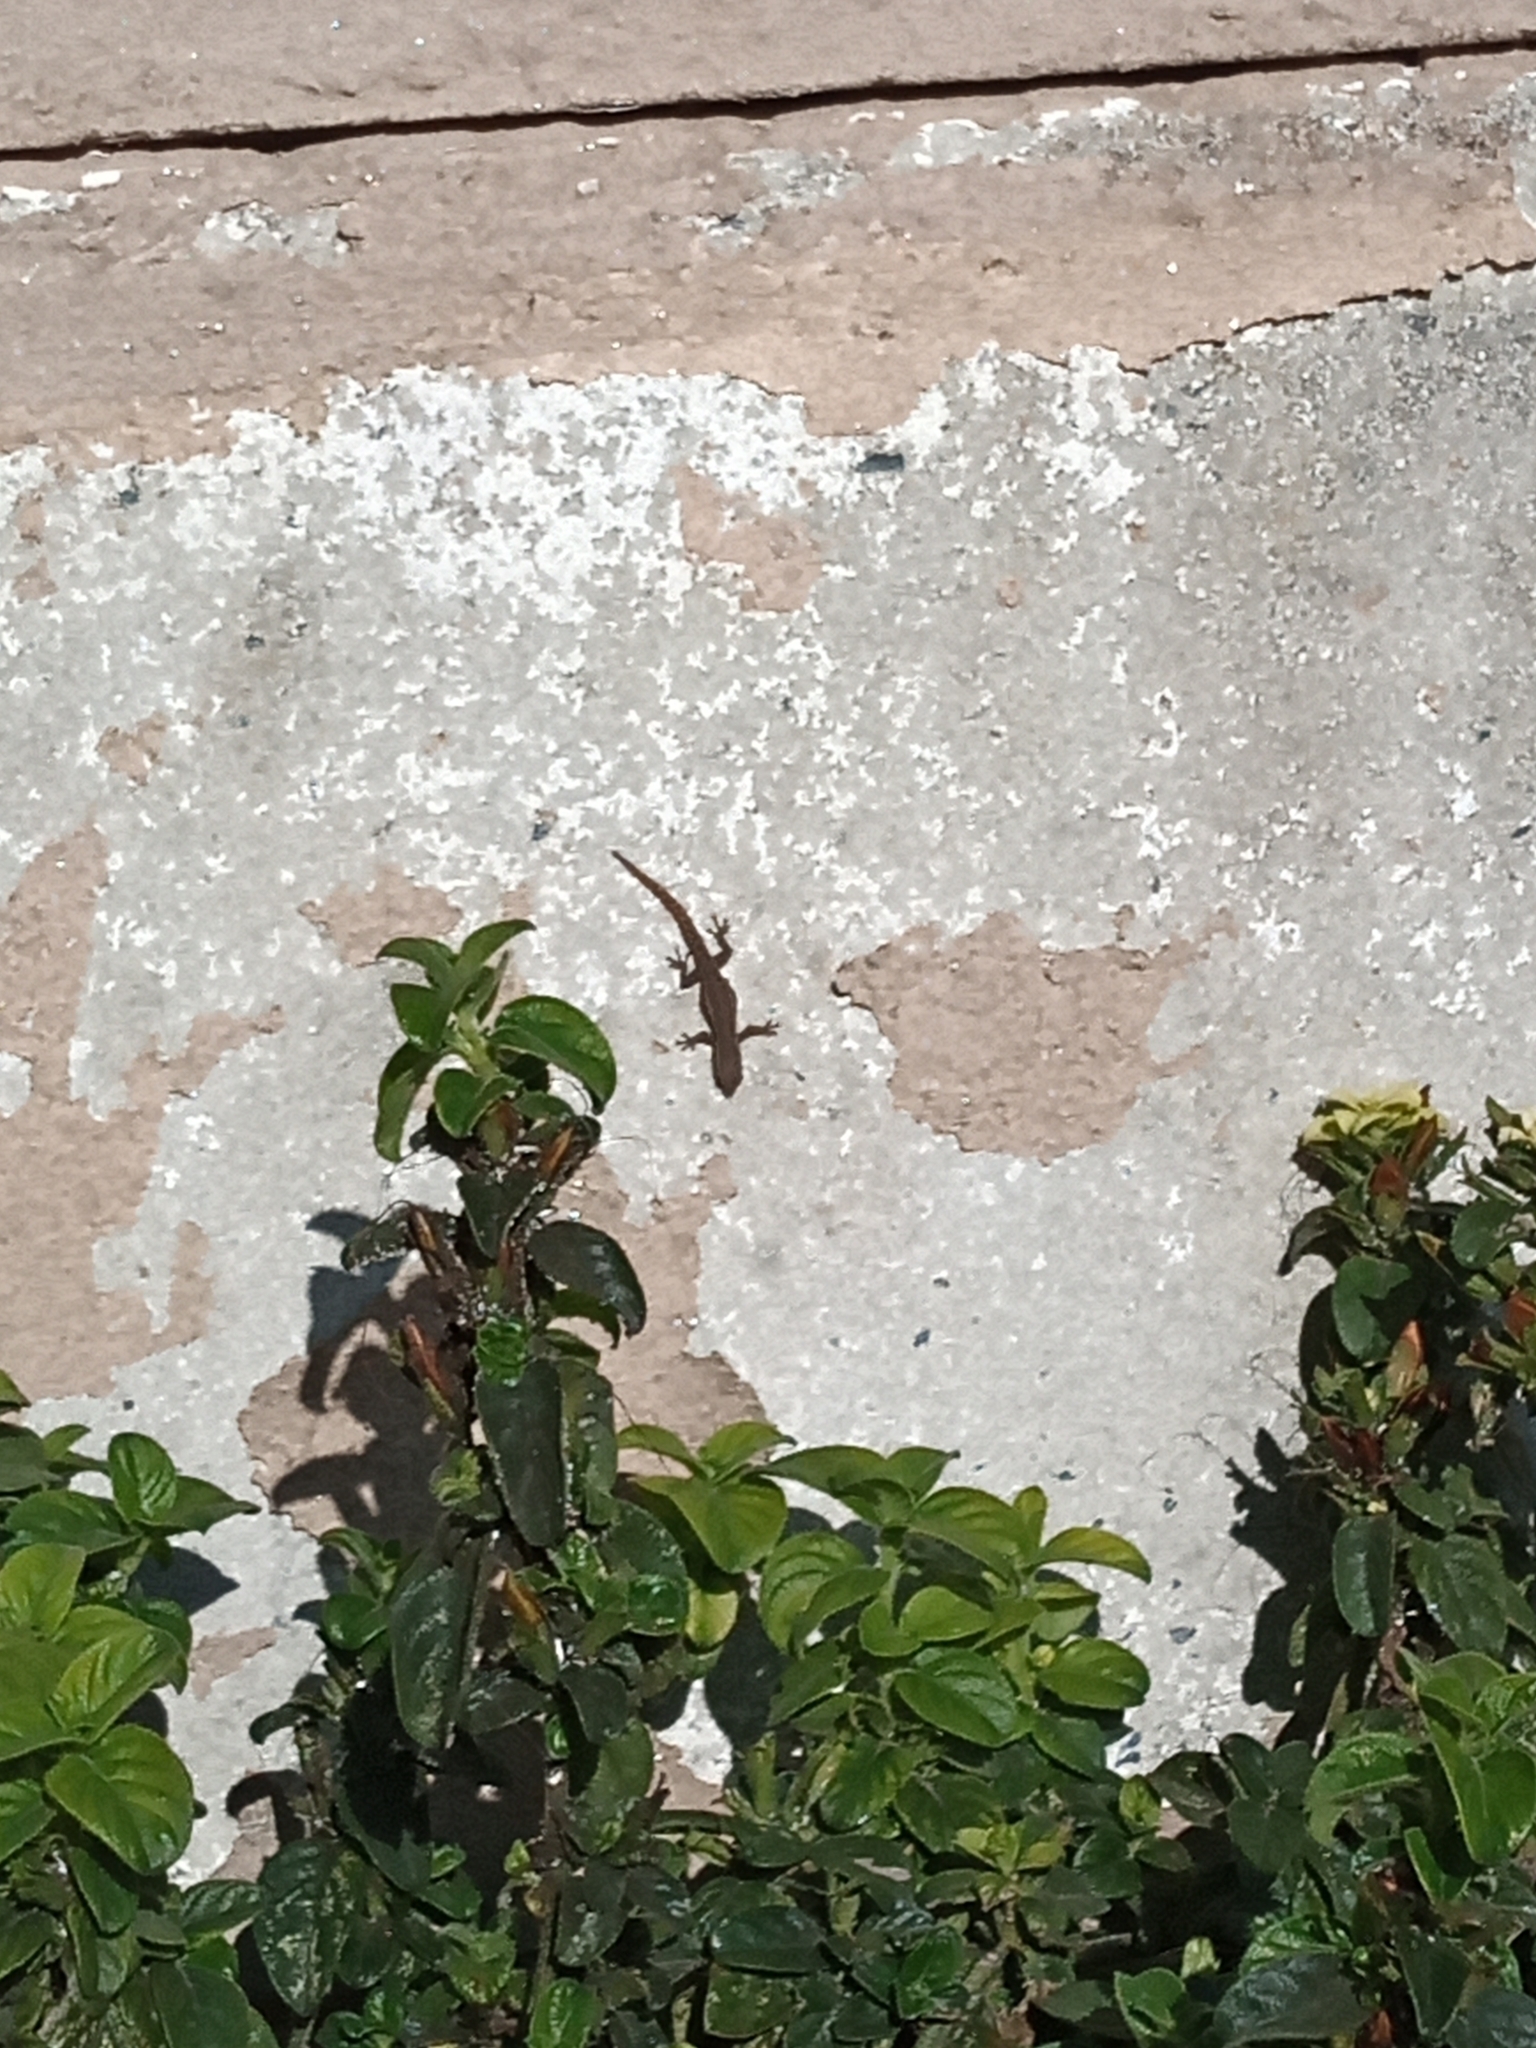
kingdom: Animalia
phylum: Chordata
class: Squamata
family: Gekkonidae
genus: Lygodactylus
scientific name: Lygodactylus capensis
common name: Cape dwarf gecko
